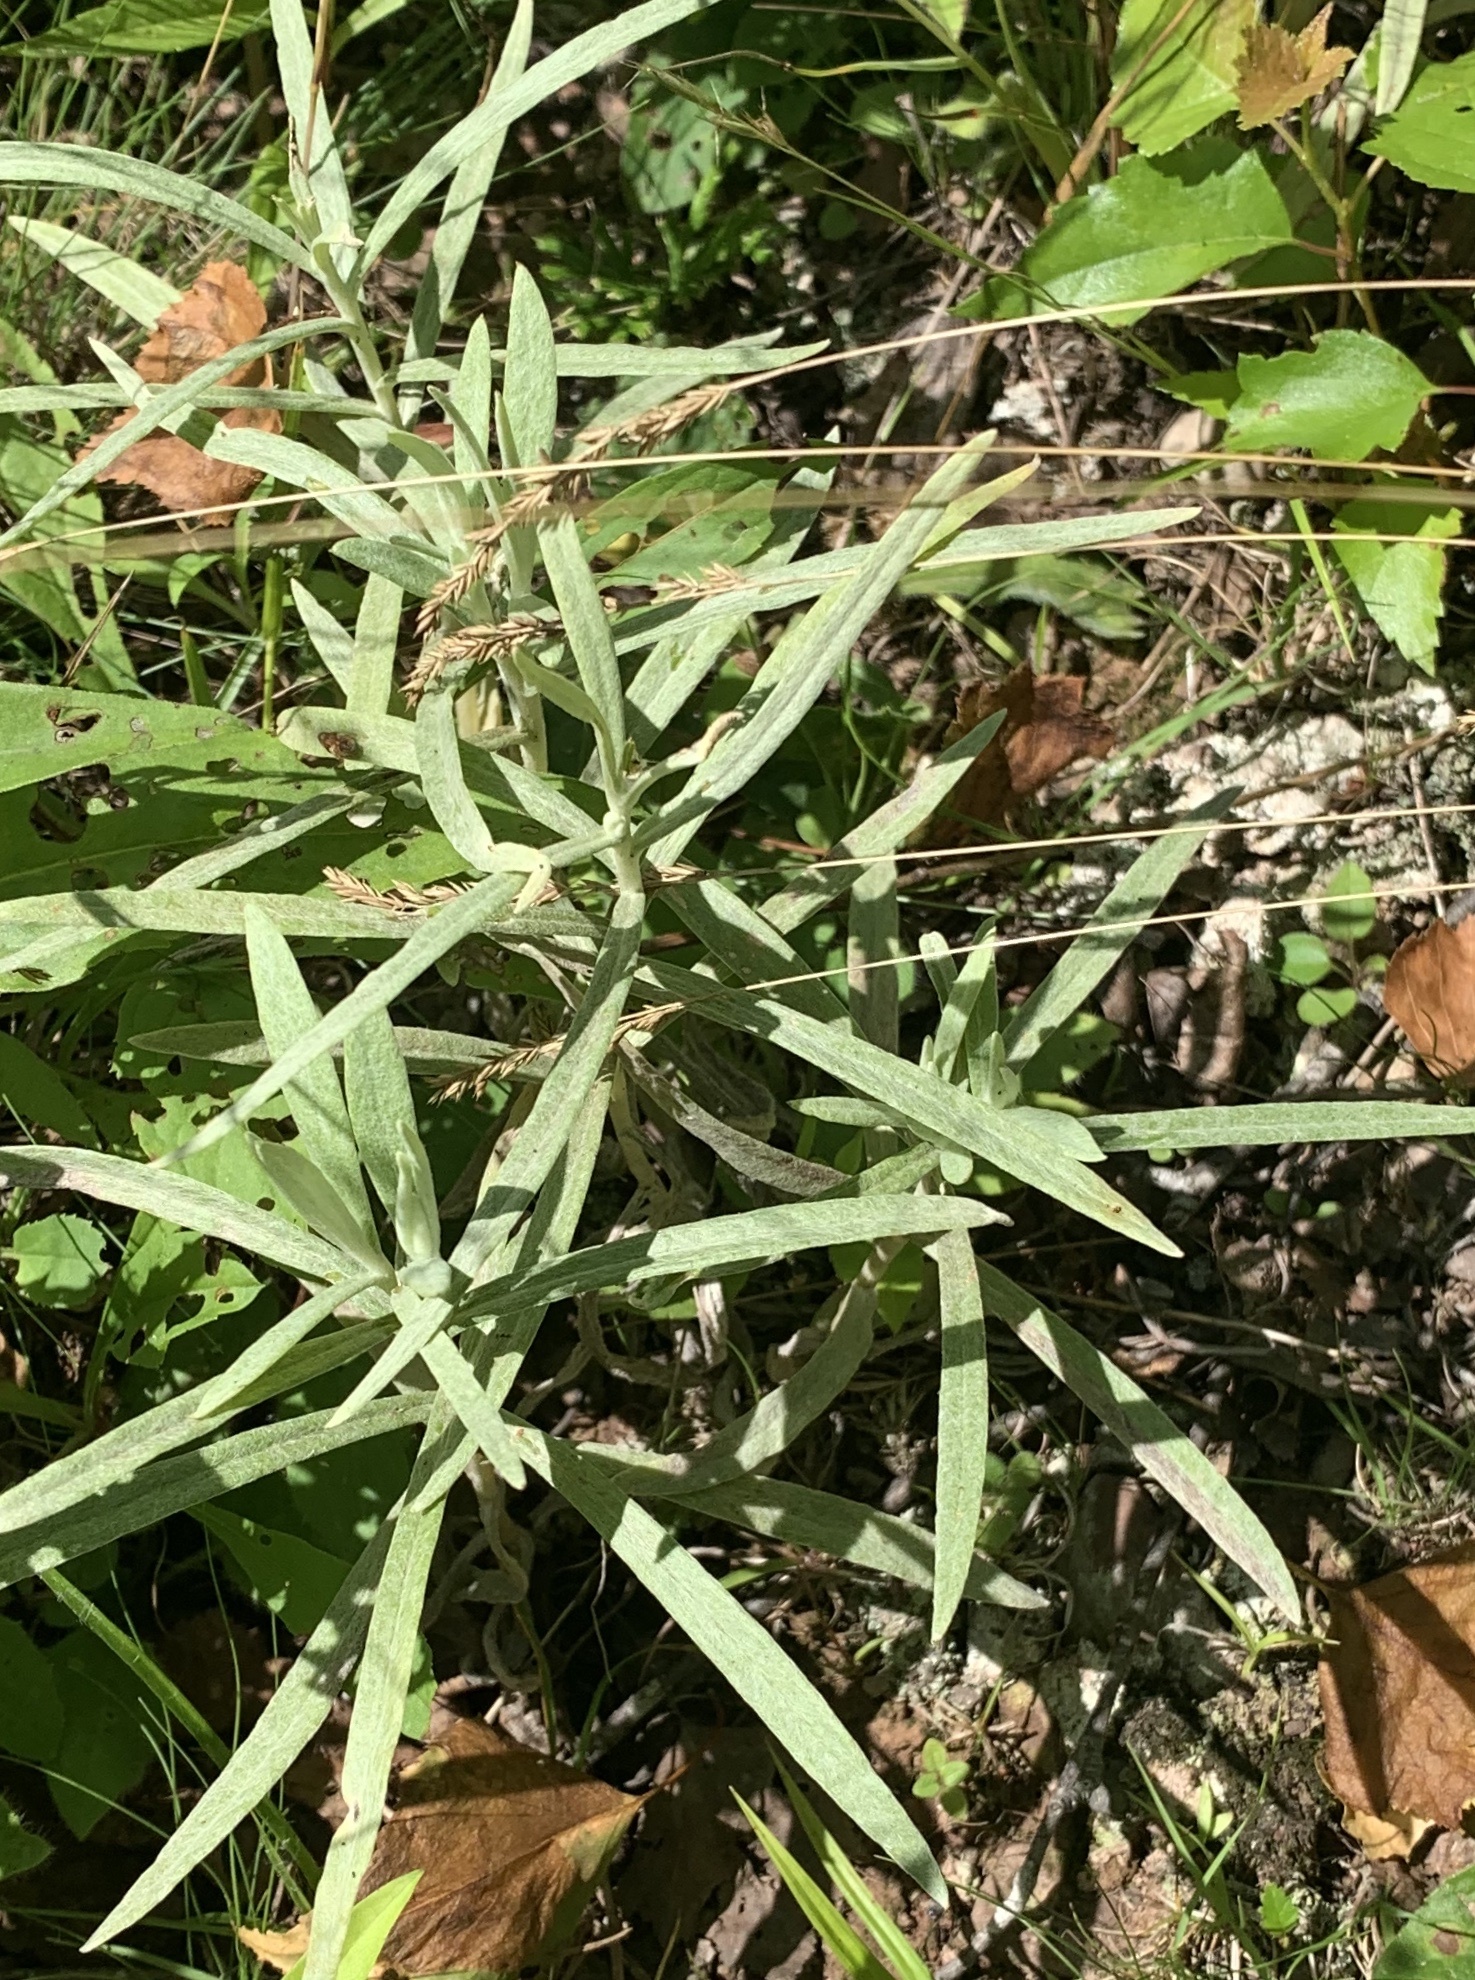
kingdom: Plantae
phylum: Tracheophyta
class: Magnoliopsida
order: Asterales
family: Asteraceae
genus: Anaphalis
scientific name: Anaphalis margaritacea
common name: Pearly everlasting
